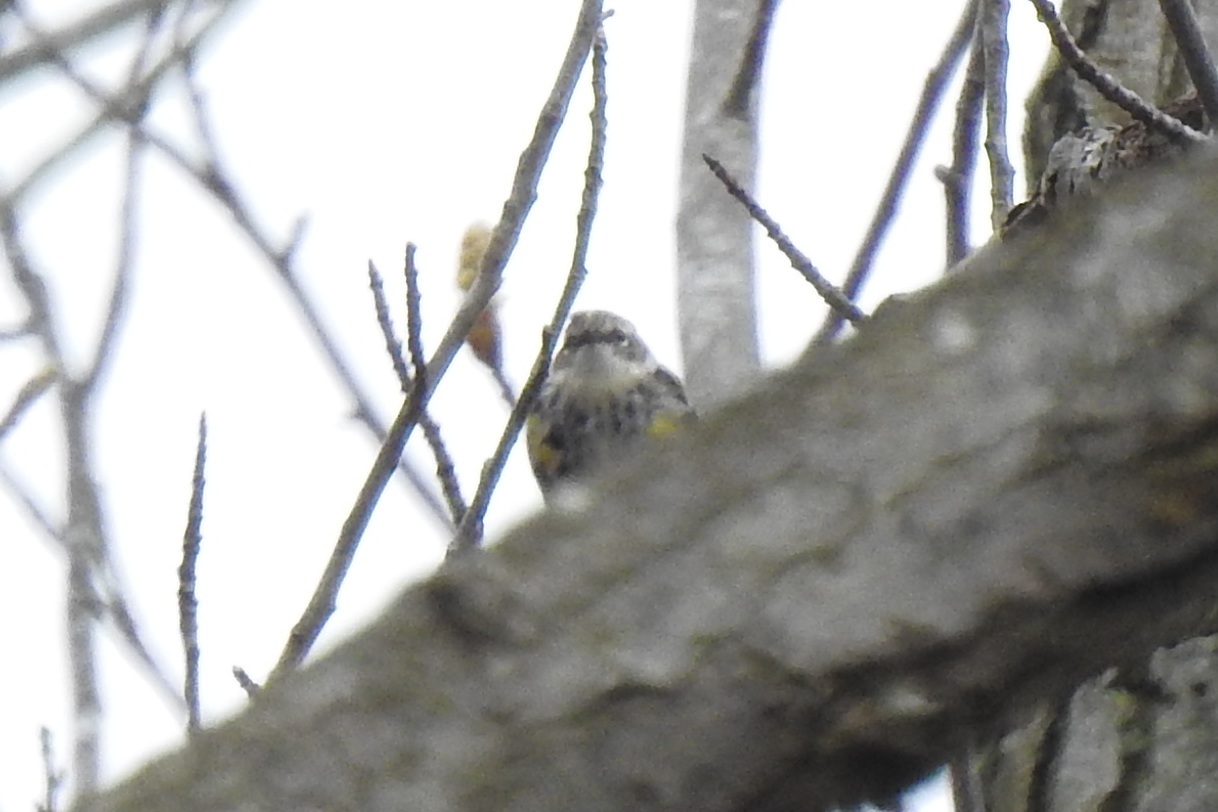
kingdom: Animalia
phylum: Chordata
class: Aves
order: Passeriformes
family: Parulidae
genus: Setophaga
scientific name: Setophaga coronata
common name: Myrtle warbler
